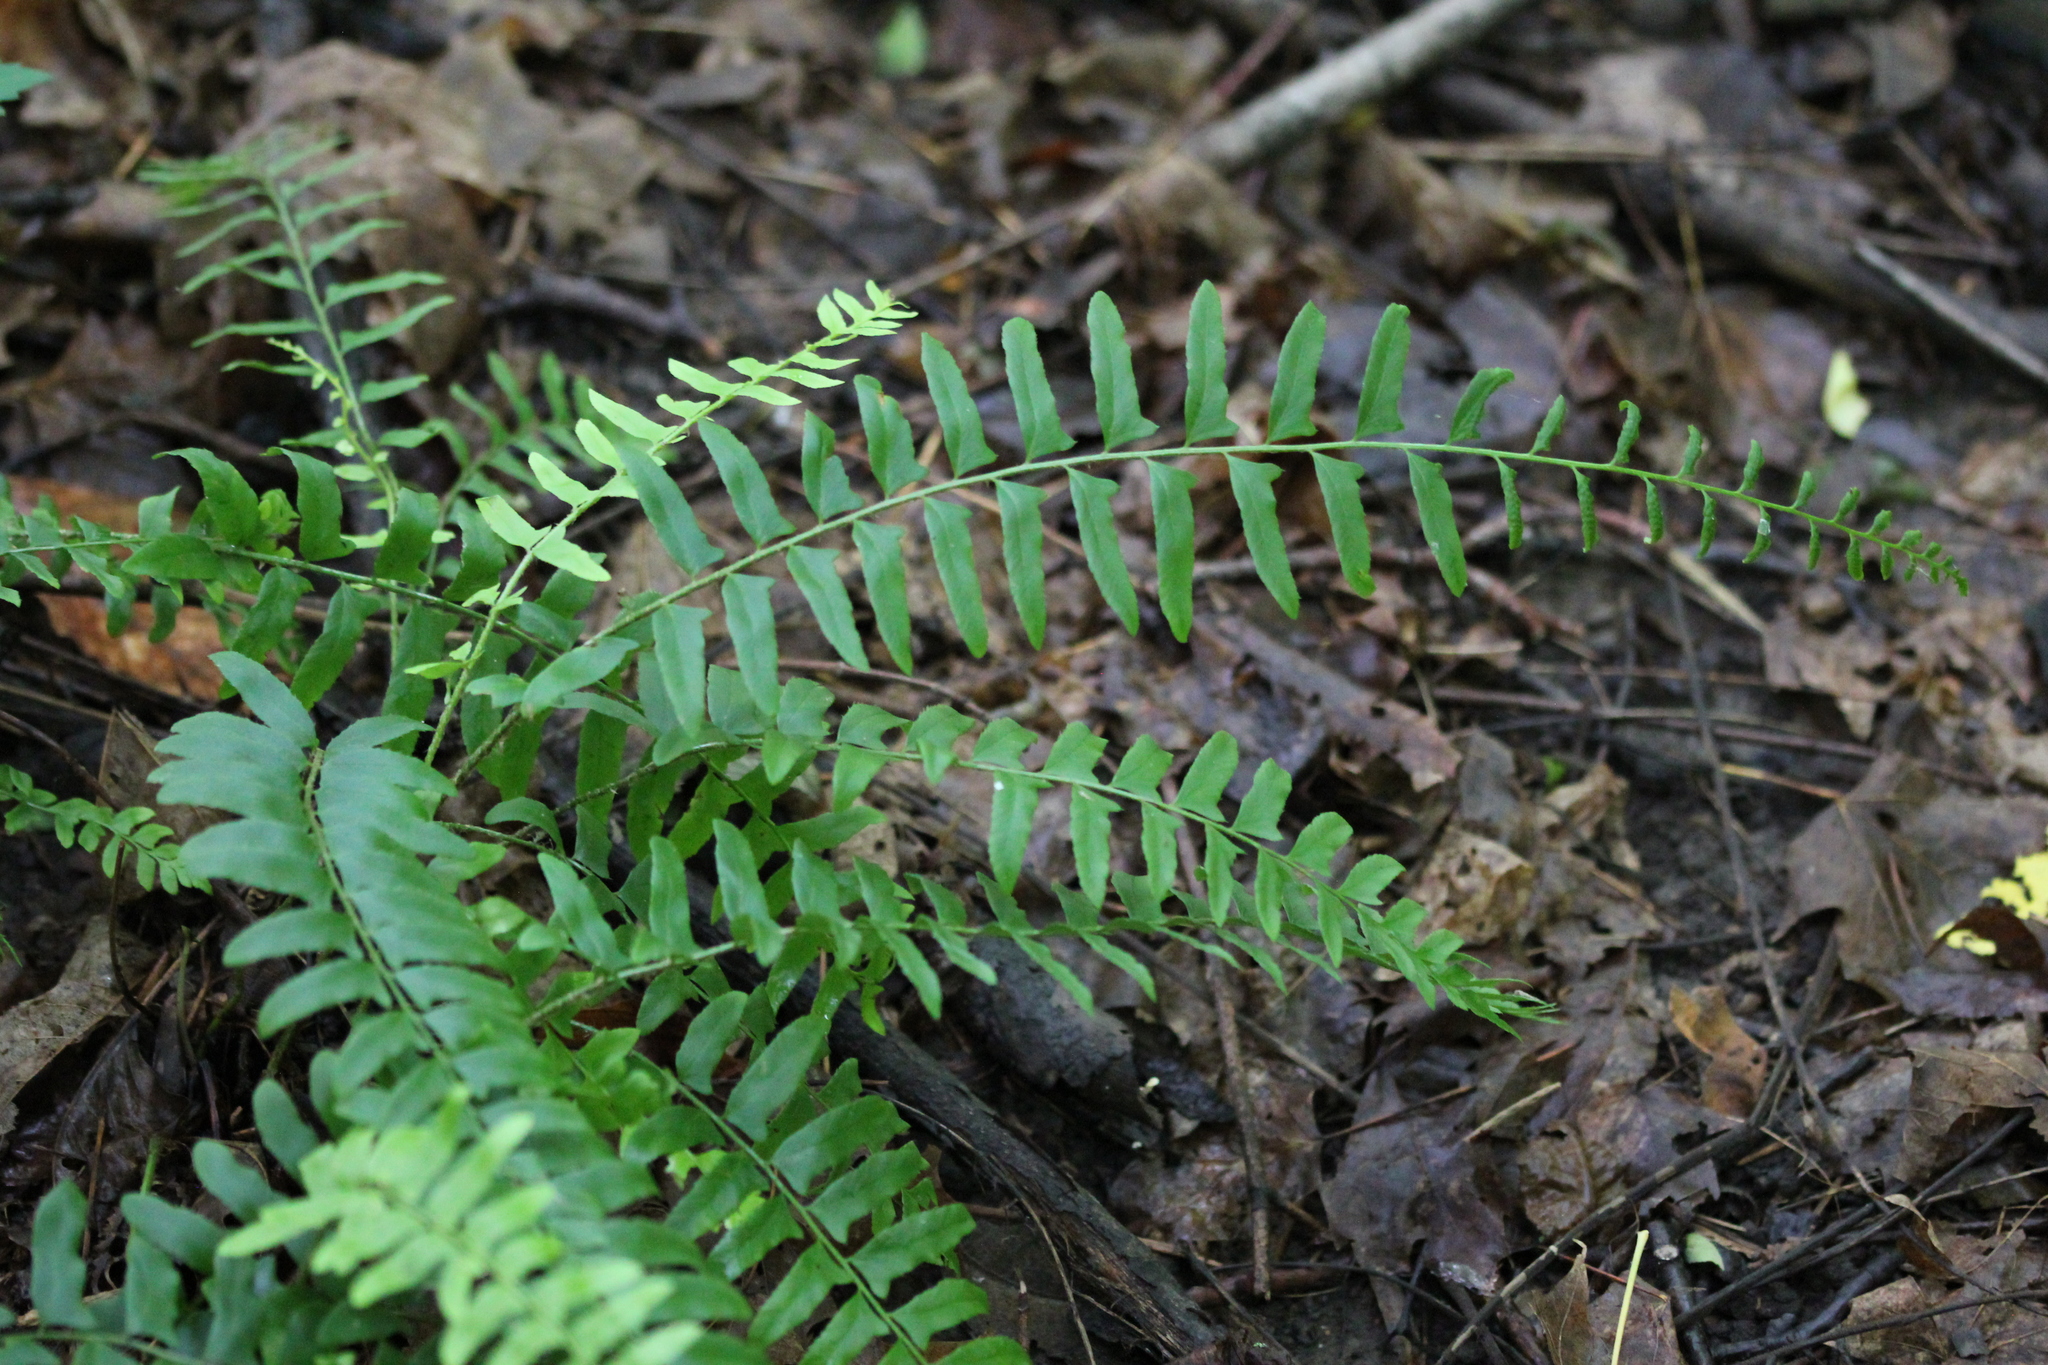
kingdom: Plantae
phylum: Tracheophyta
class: Polypodiopsida
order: Polypodiales
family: Dryopteridaceae
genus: Polystichum
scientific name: Polystichum acrostichoides
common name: Christmas fern
